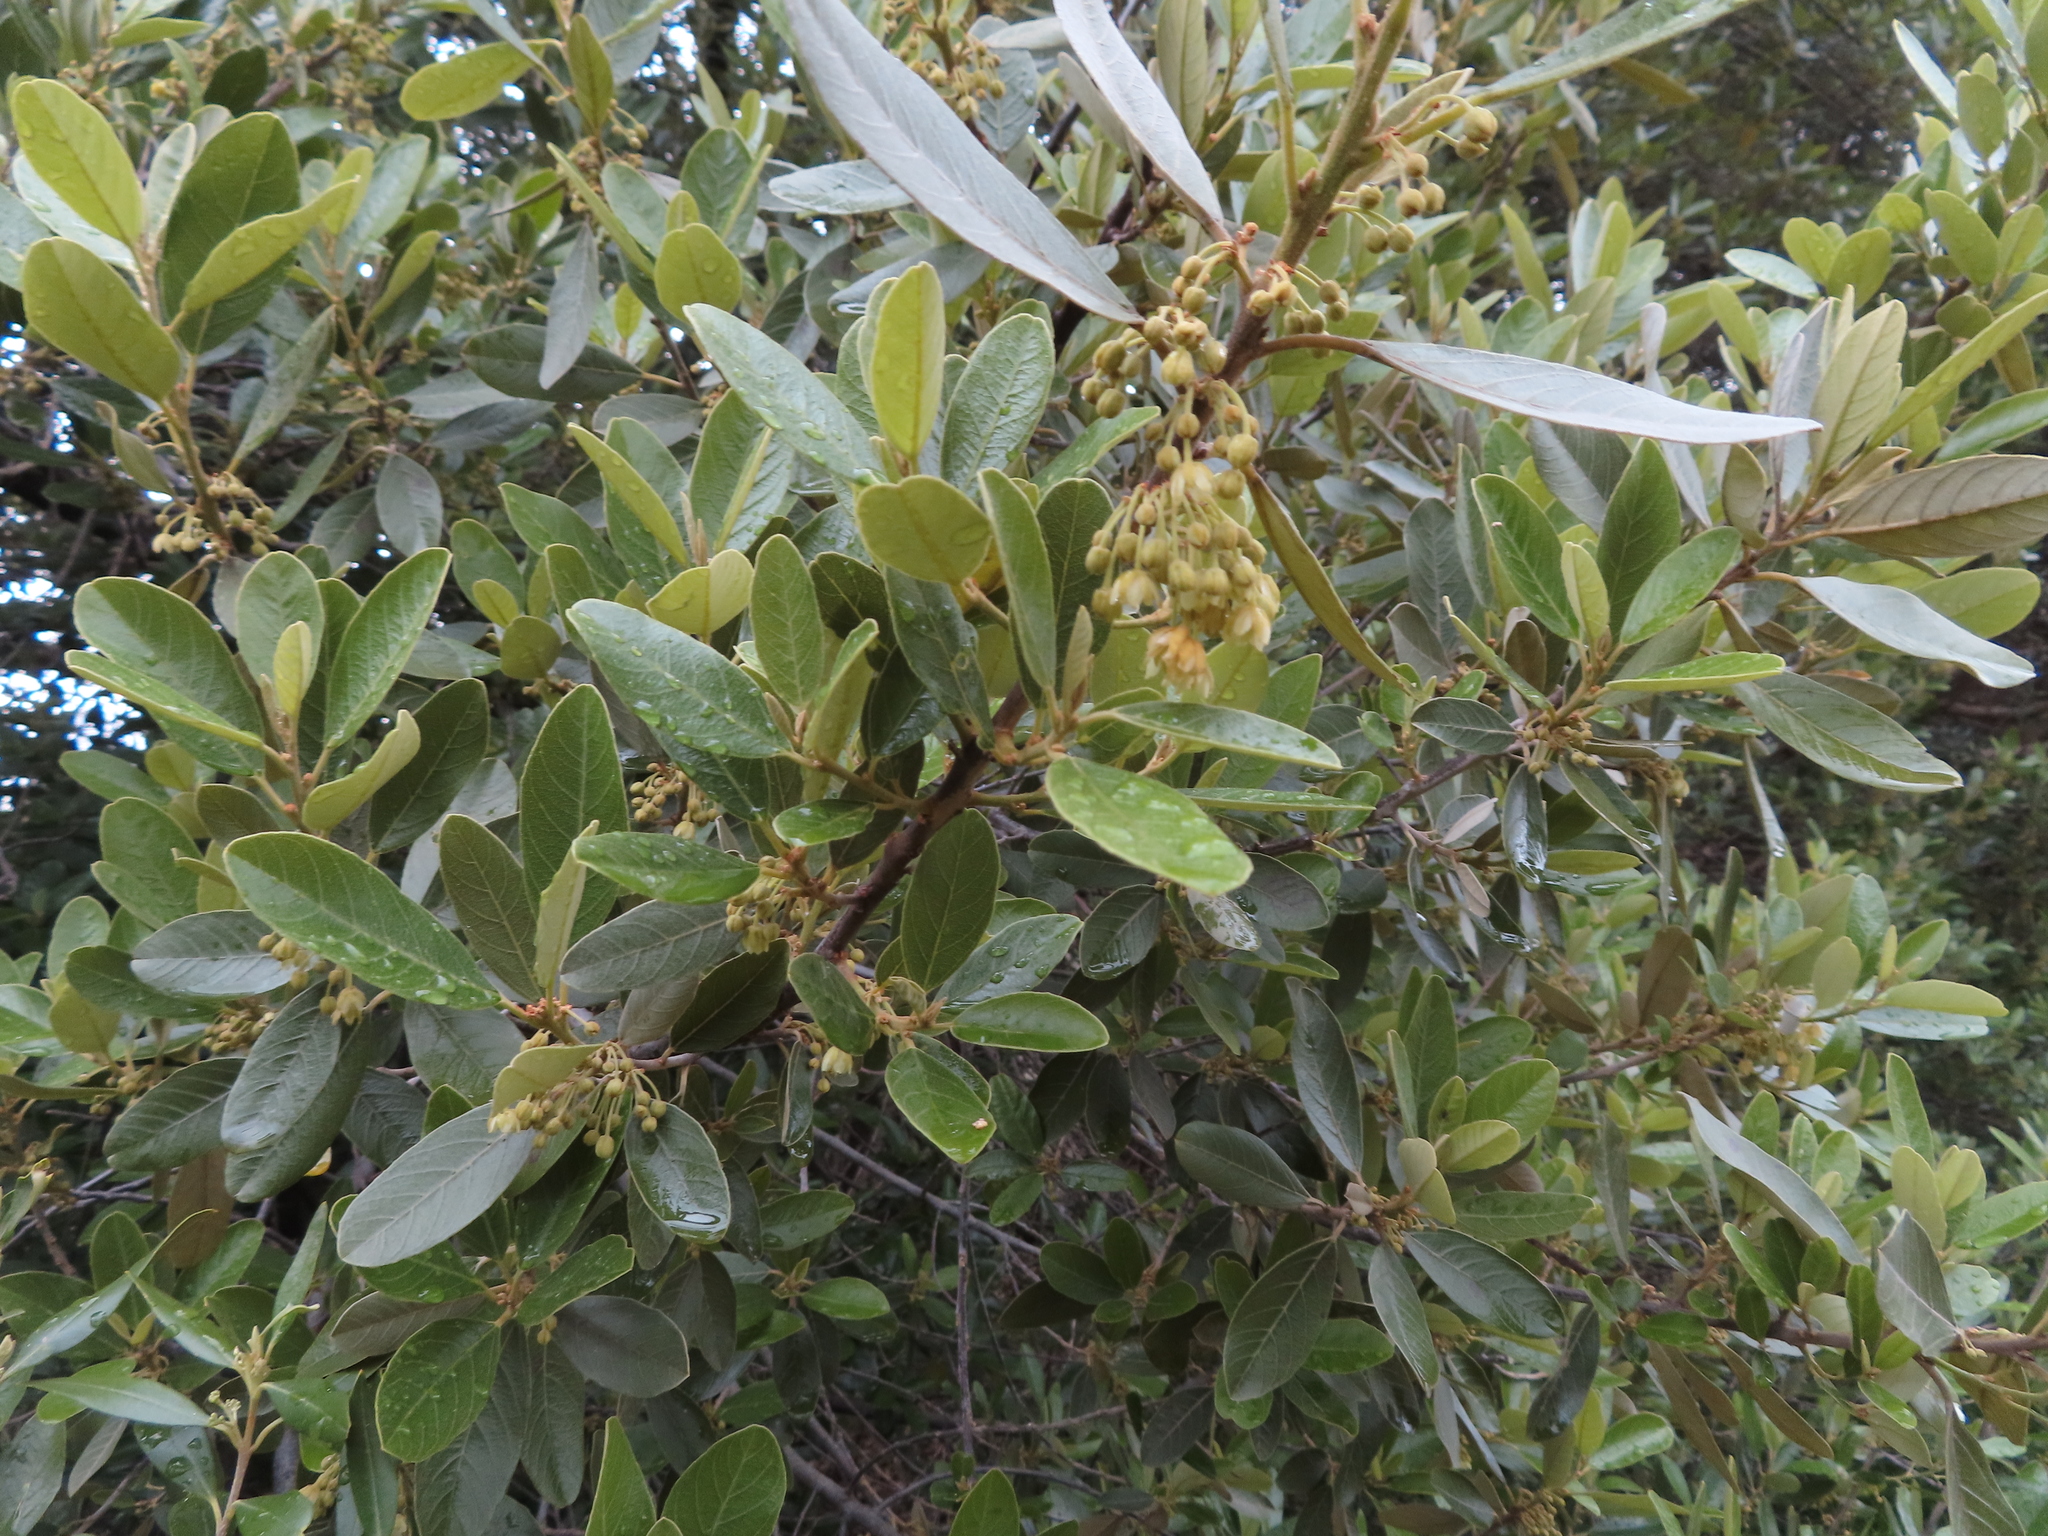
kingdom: Plantae
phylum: Tracheophyta
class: Magnoliopsida
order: Malpighiales
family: Achariaceae
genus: Kiggelaria
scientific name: Kiggelaria africana
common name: Wild peach
